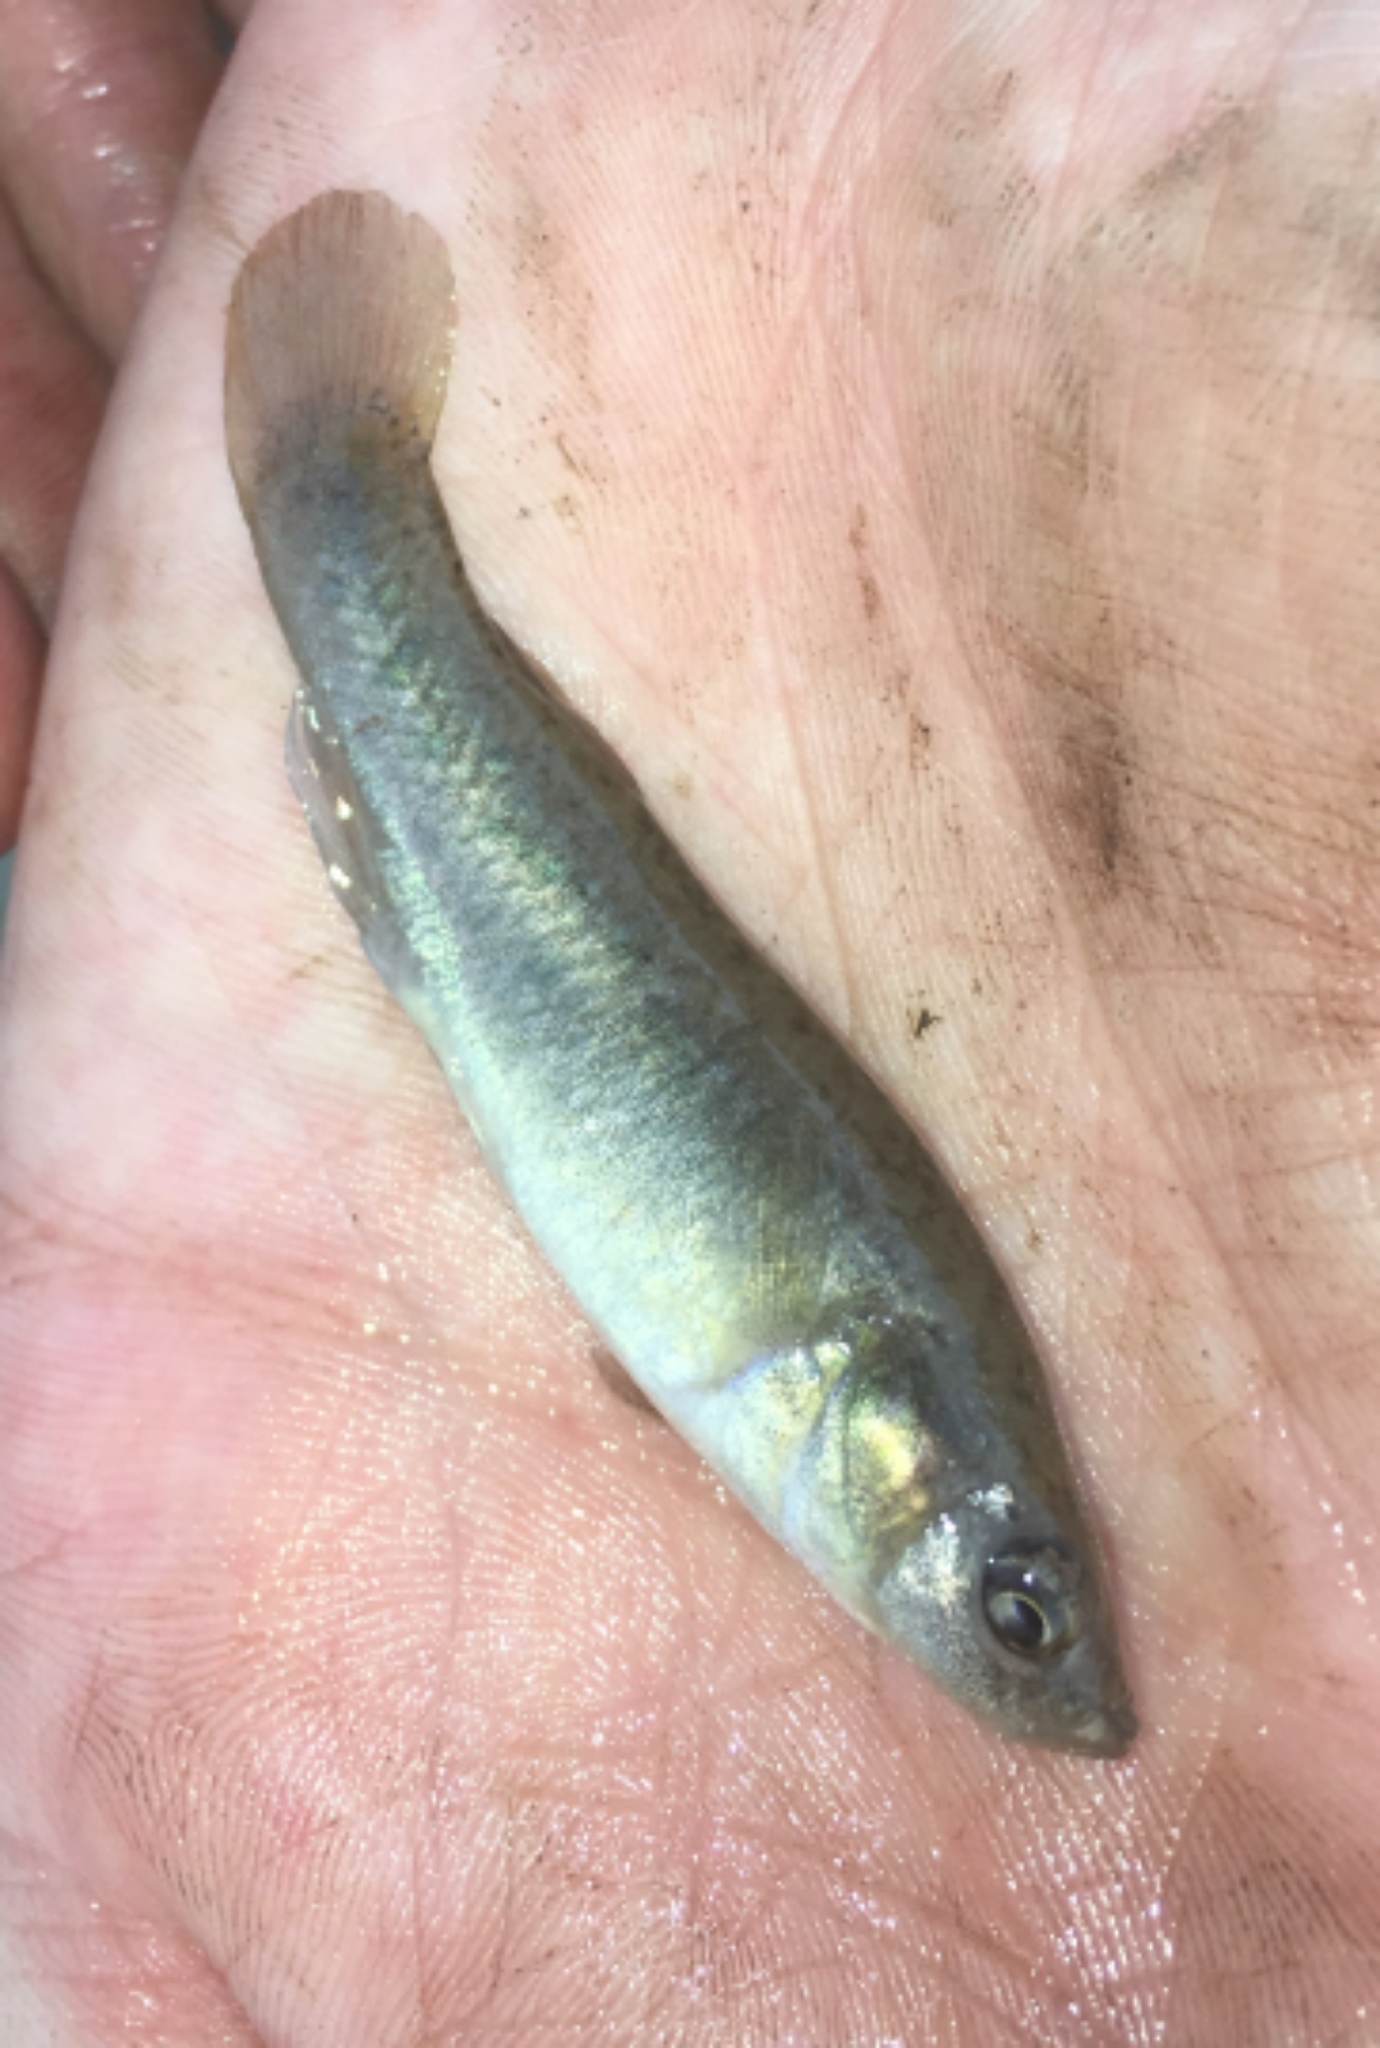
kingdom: Animalia
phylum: Chordata
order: Cyprinodontiformes
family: Fundulidae
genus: Fundulus
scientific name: Fundulus jenkinsi
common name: Saltmarsh topminnow
